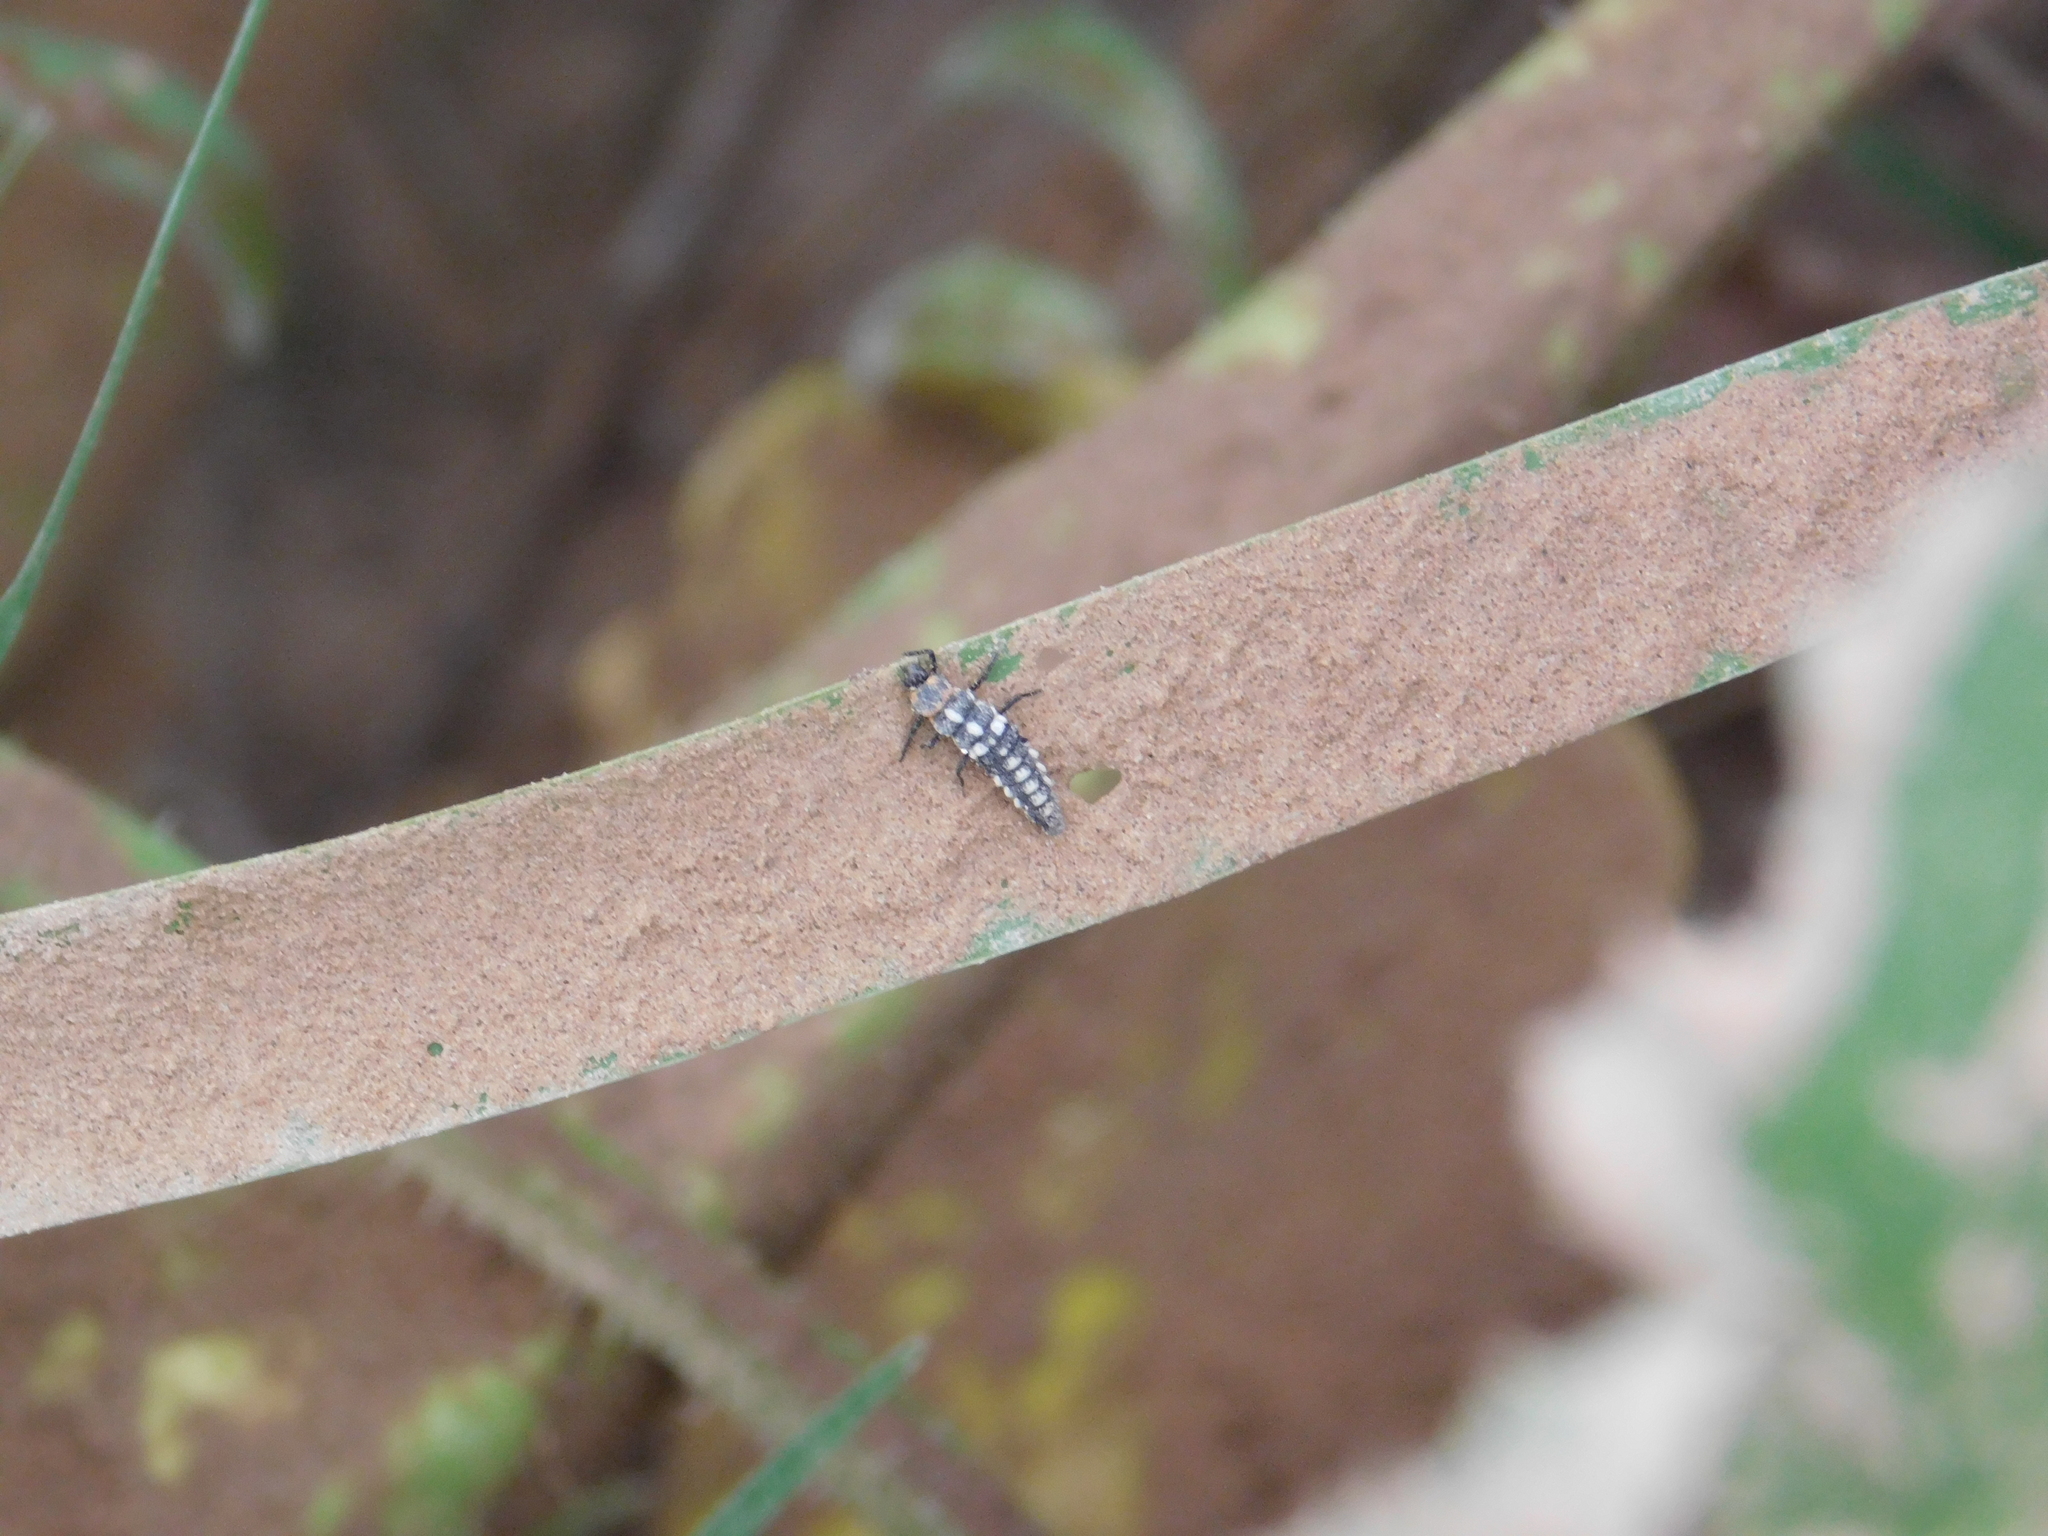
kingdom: Animalia
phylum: Arthropoda
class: Insecta
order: Coleoptera
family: Coccinellidae
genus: Eriopis
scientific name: Eriopis connexa
